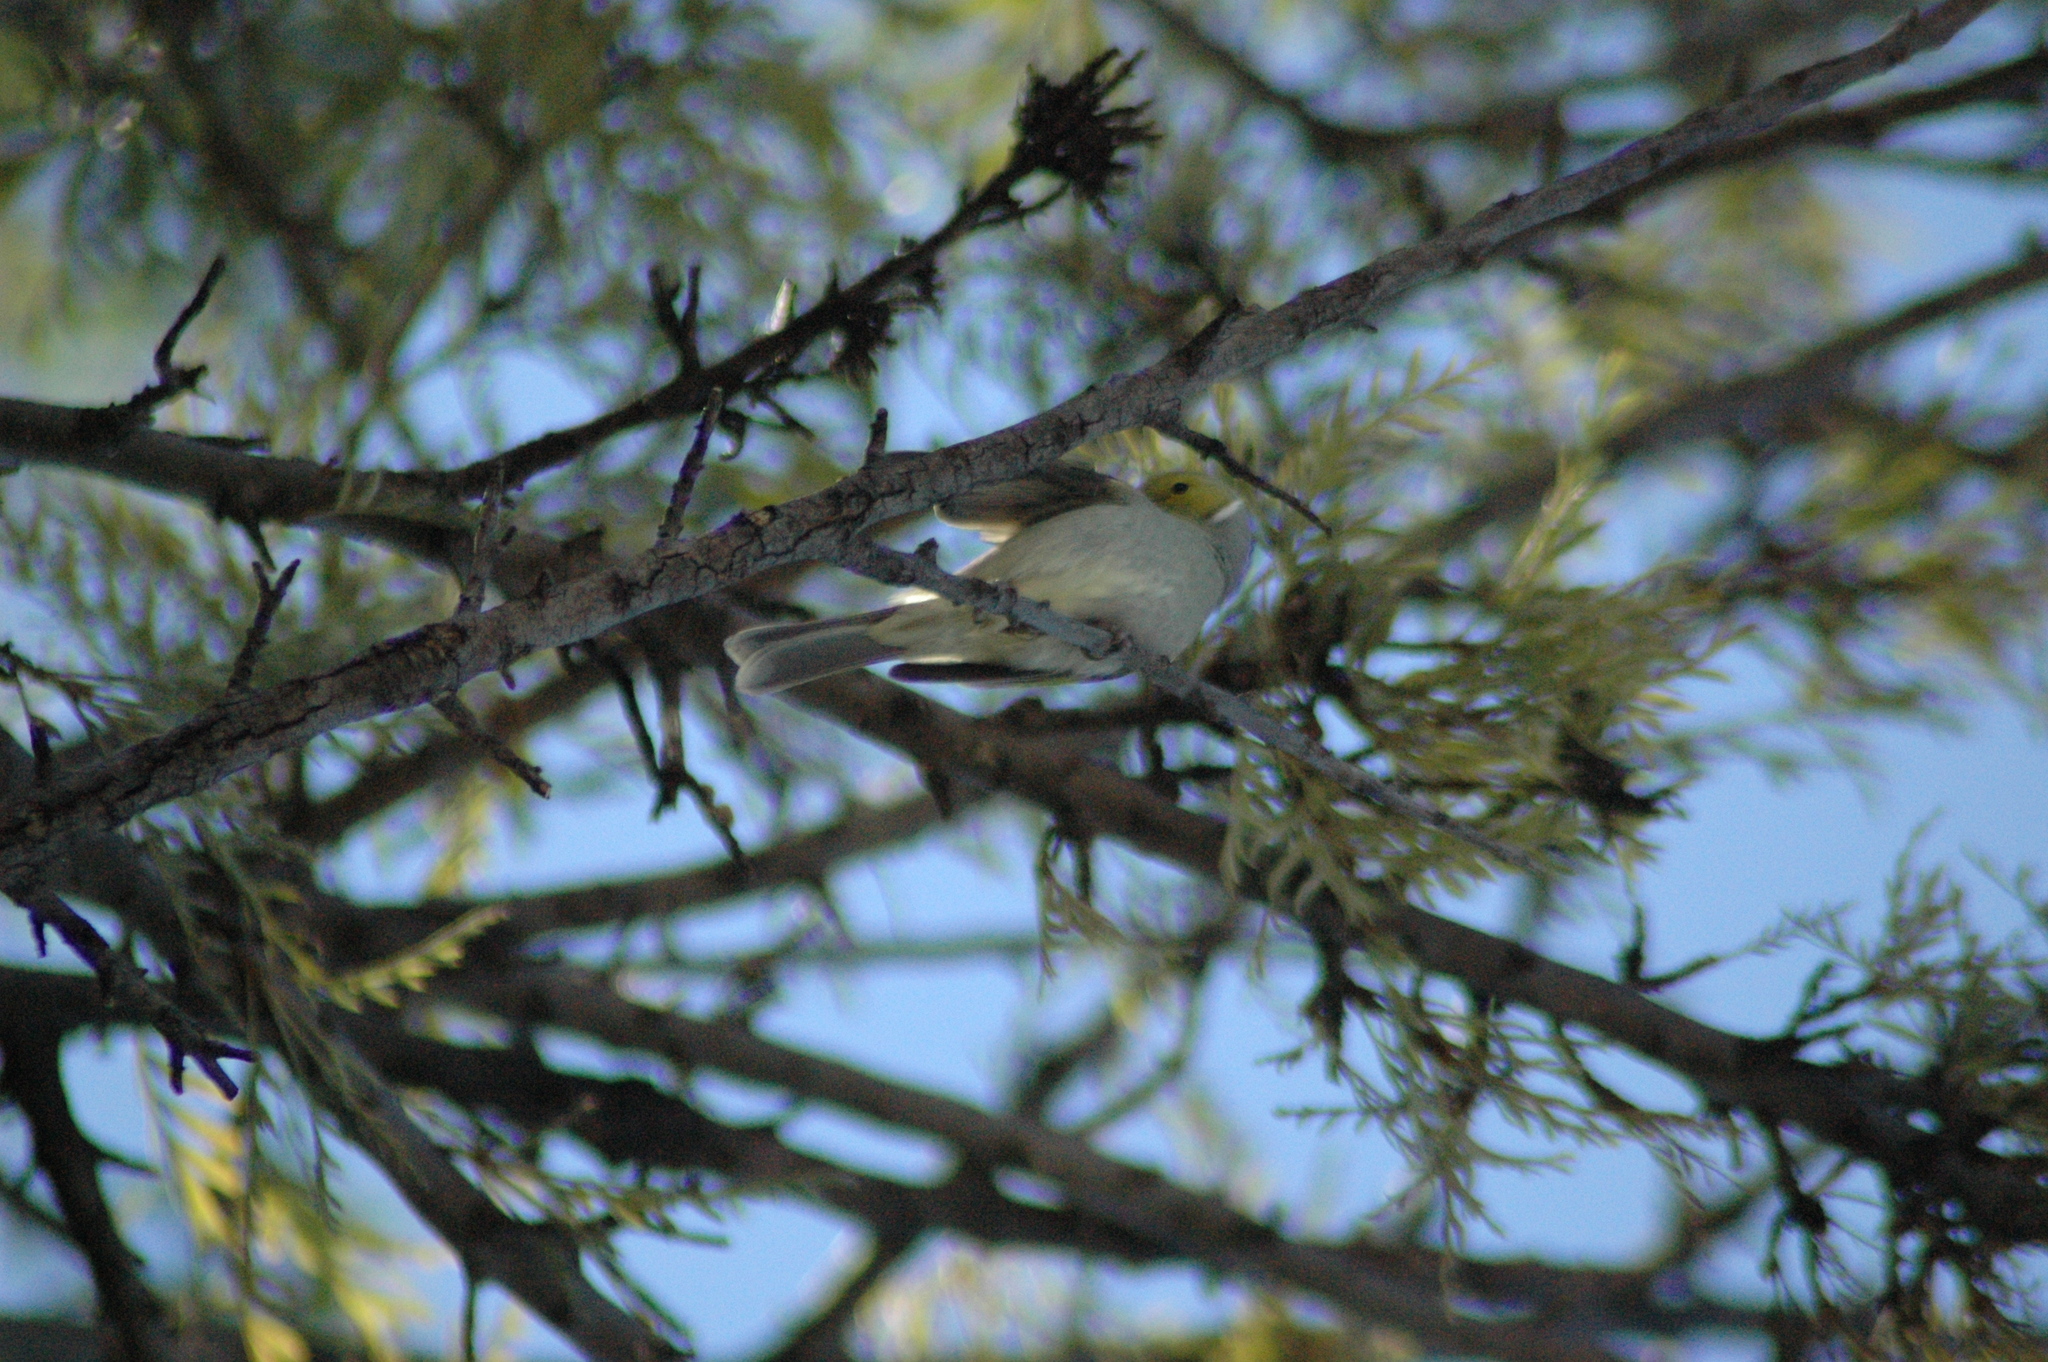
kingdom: Animalia
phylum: Chordata
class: Aves
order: Passeriformes
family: Meliphagidae
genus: Ptilotula
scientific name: Ptilotula penicillata
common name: White-plumed honeyeater
